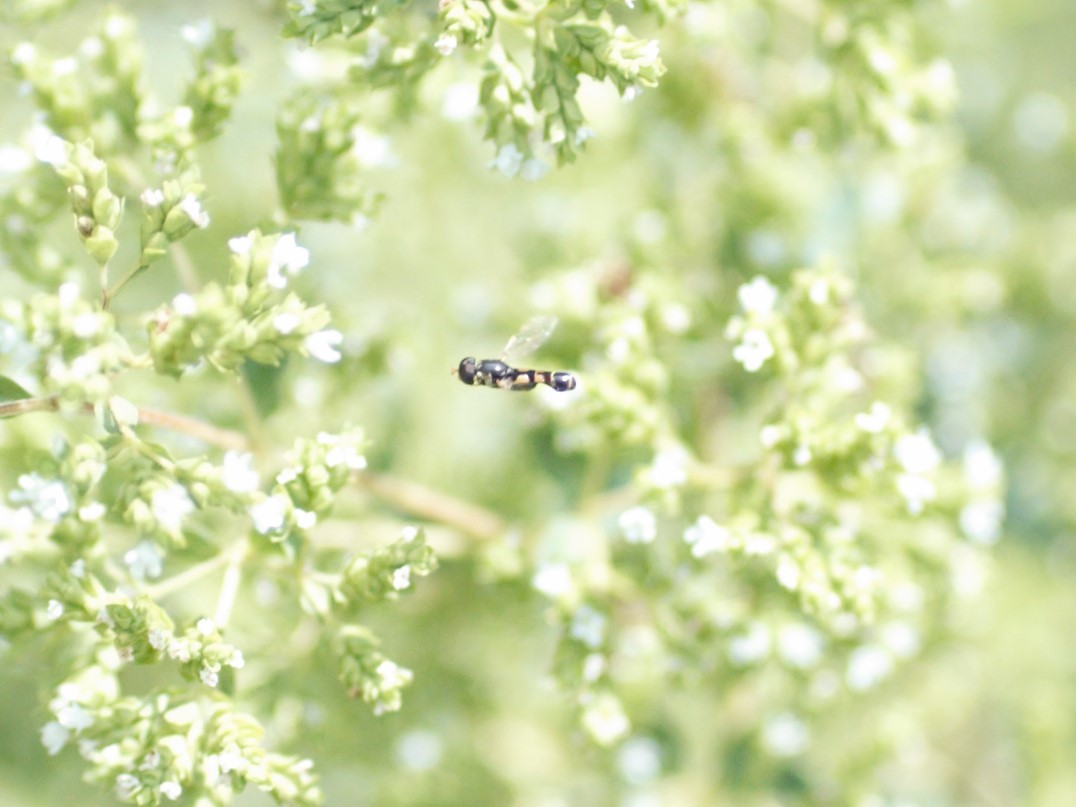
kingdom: Animalia
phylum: Arthropoda
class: Insecta
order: Diptera
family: Syrphidae
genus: Syritta
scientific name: Syritta pipiens
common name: Hover fly
